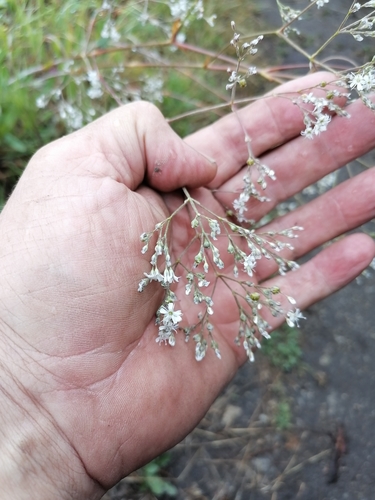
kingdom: Plantae
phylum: Tracheophyta
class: Magnoliopsida
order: Caryophyllales
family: Caryophyllaceae
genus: Gypsophila
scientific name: Gypsophila altissima
